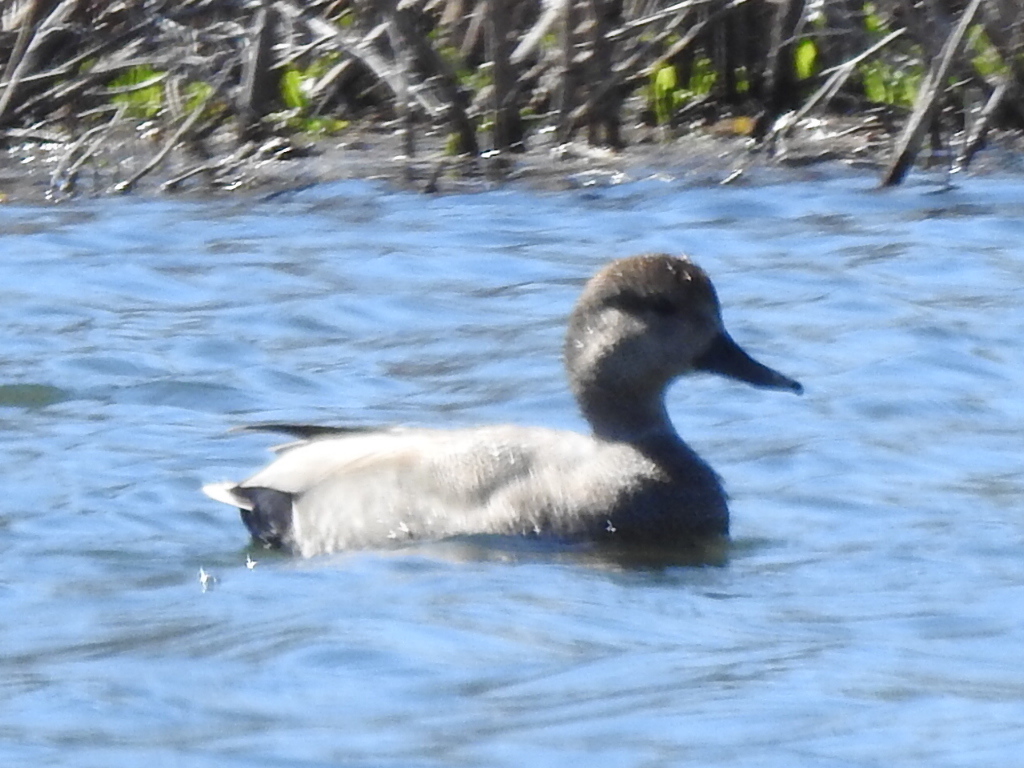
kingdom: Animalia
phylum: Chordata
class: Aves
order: Anseriformes
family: Anatidae
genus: Mareca
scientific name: Mareca strepera
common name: Gadwall
